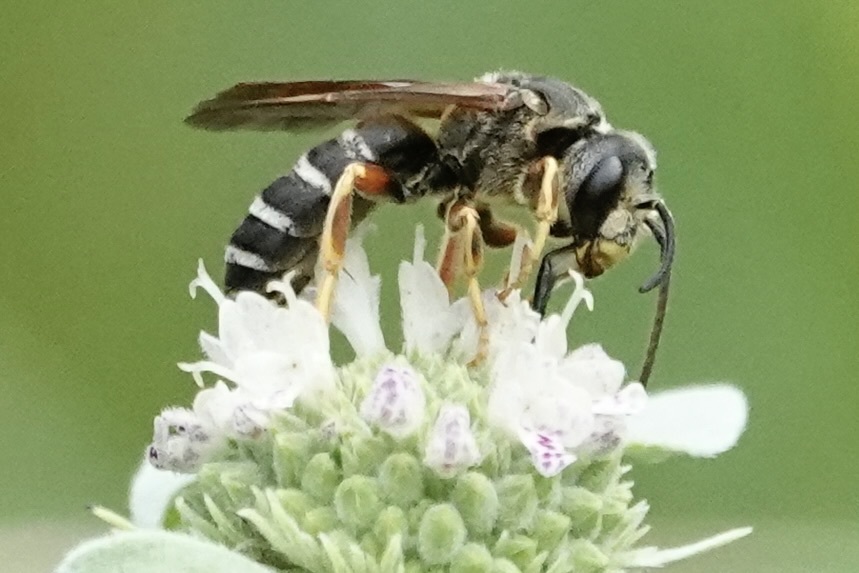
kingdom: Animalia
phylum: Arthropoda
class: Insecta
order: Hymenoptera
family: Halictidae
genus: Halictus
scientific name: Halictus parallelus
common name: Parallel-striped sweat bee
